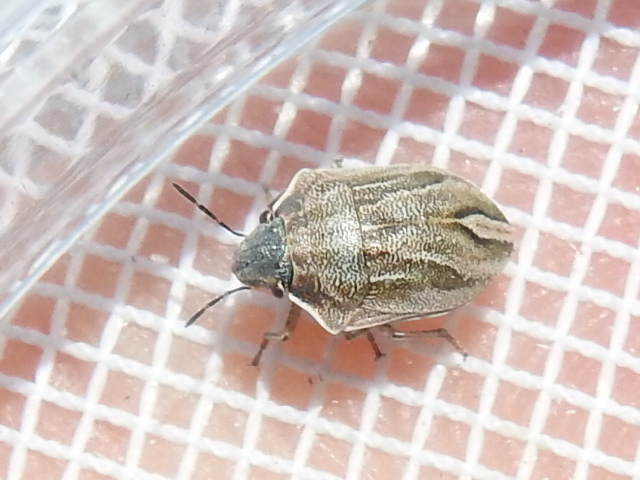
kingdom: Animalia
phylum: Arthropoda
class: Insecta
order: Hemiptera
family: Scutelleridae
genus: Homaemus
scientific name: Homaemus parvulus
